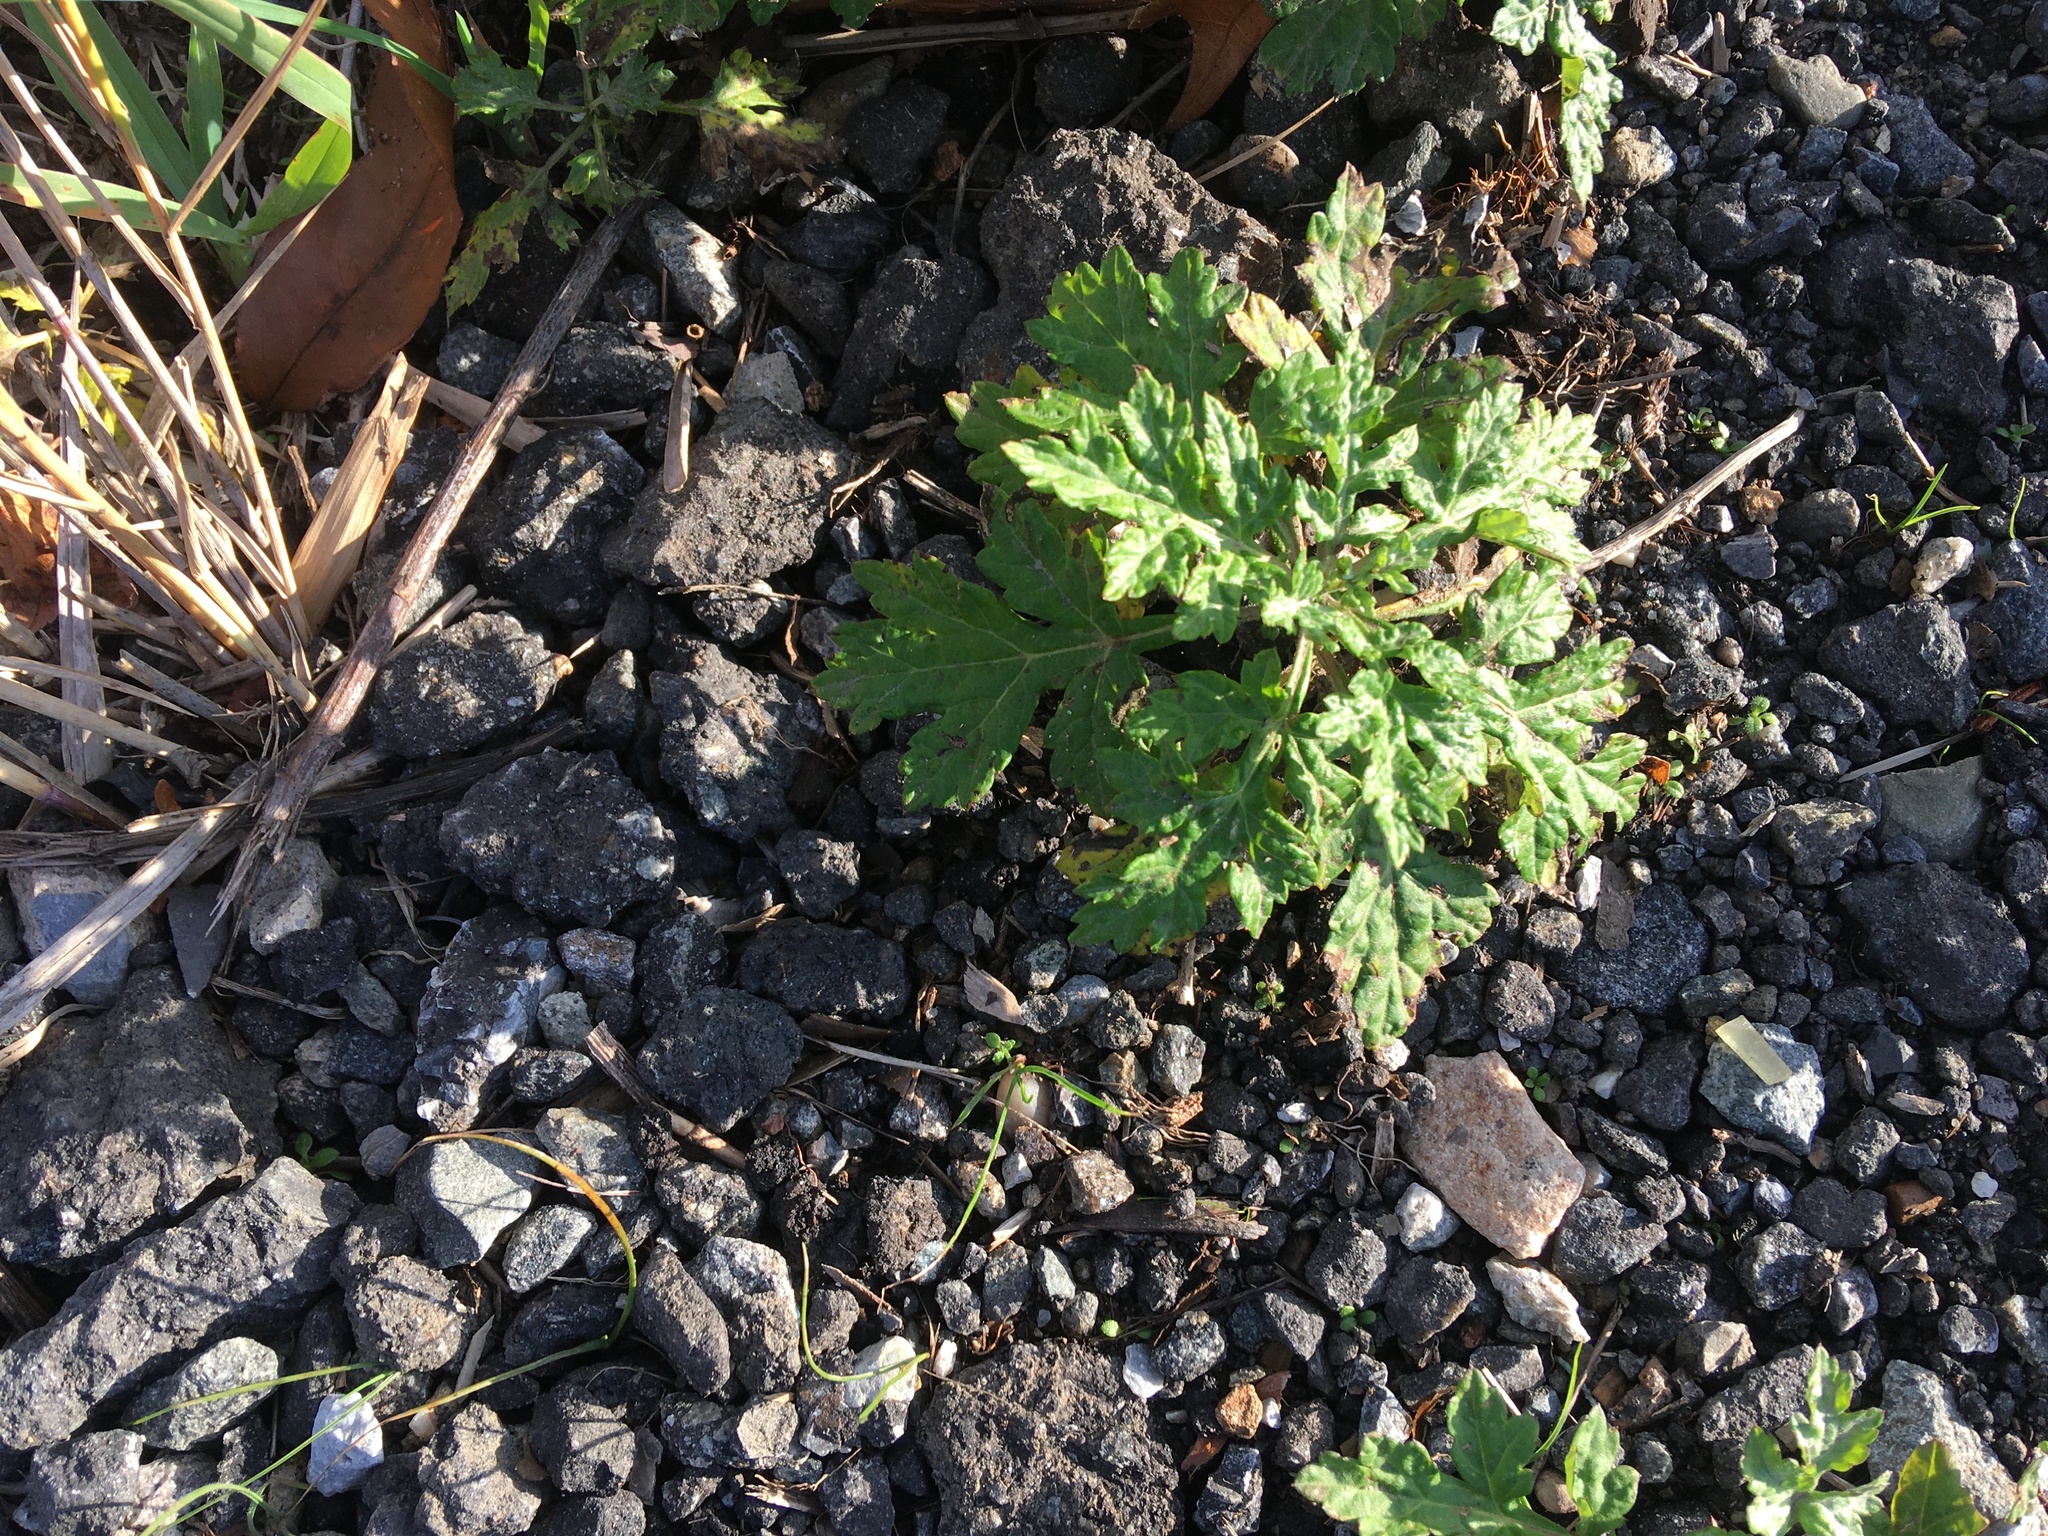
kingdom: Plantae
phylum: Tracheophyta
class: Magnoliopsida
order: Asterales
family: Asteraceae
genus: Artemisia
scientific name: Artemisia vulgaris
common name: Mugwort
